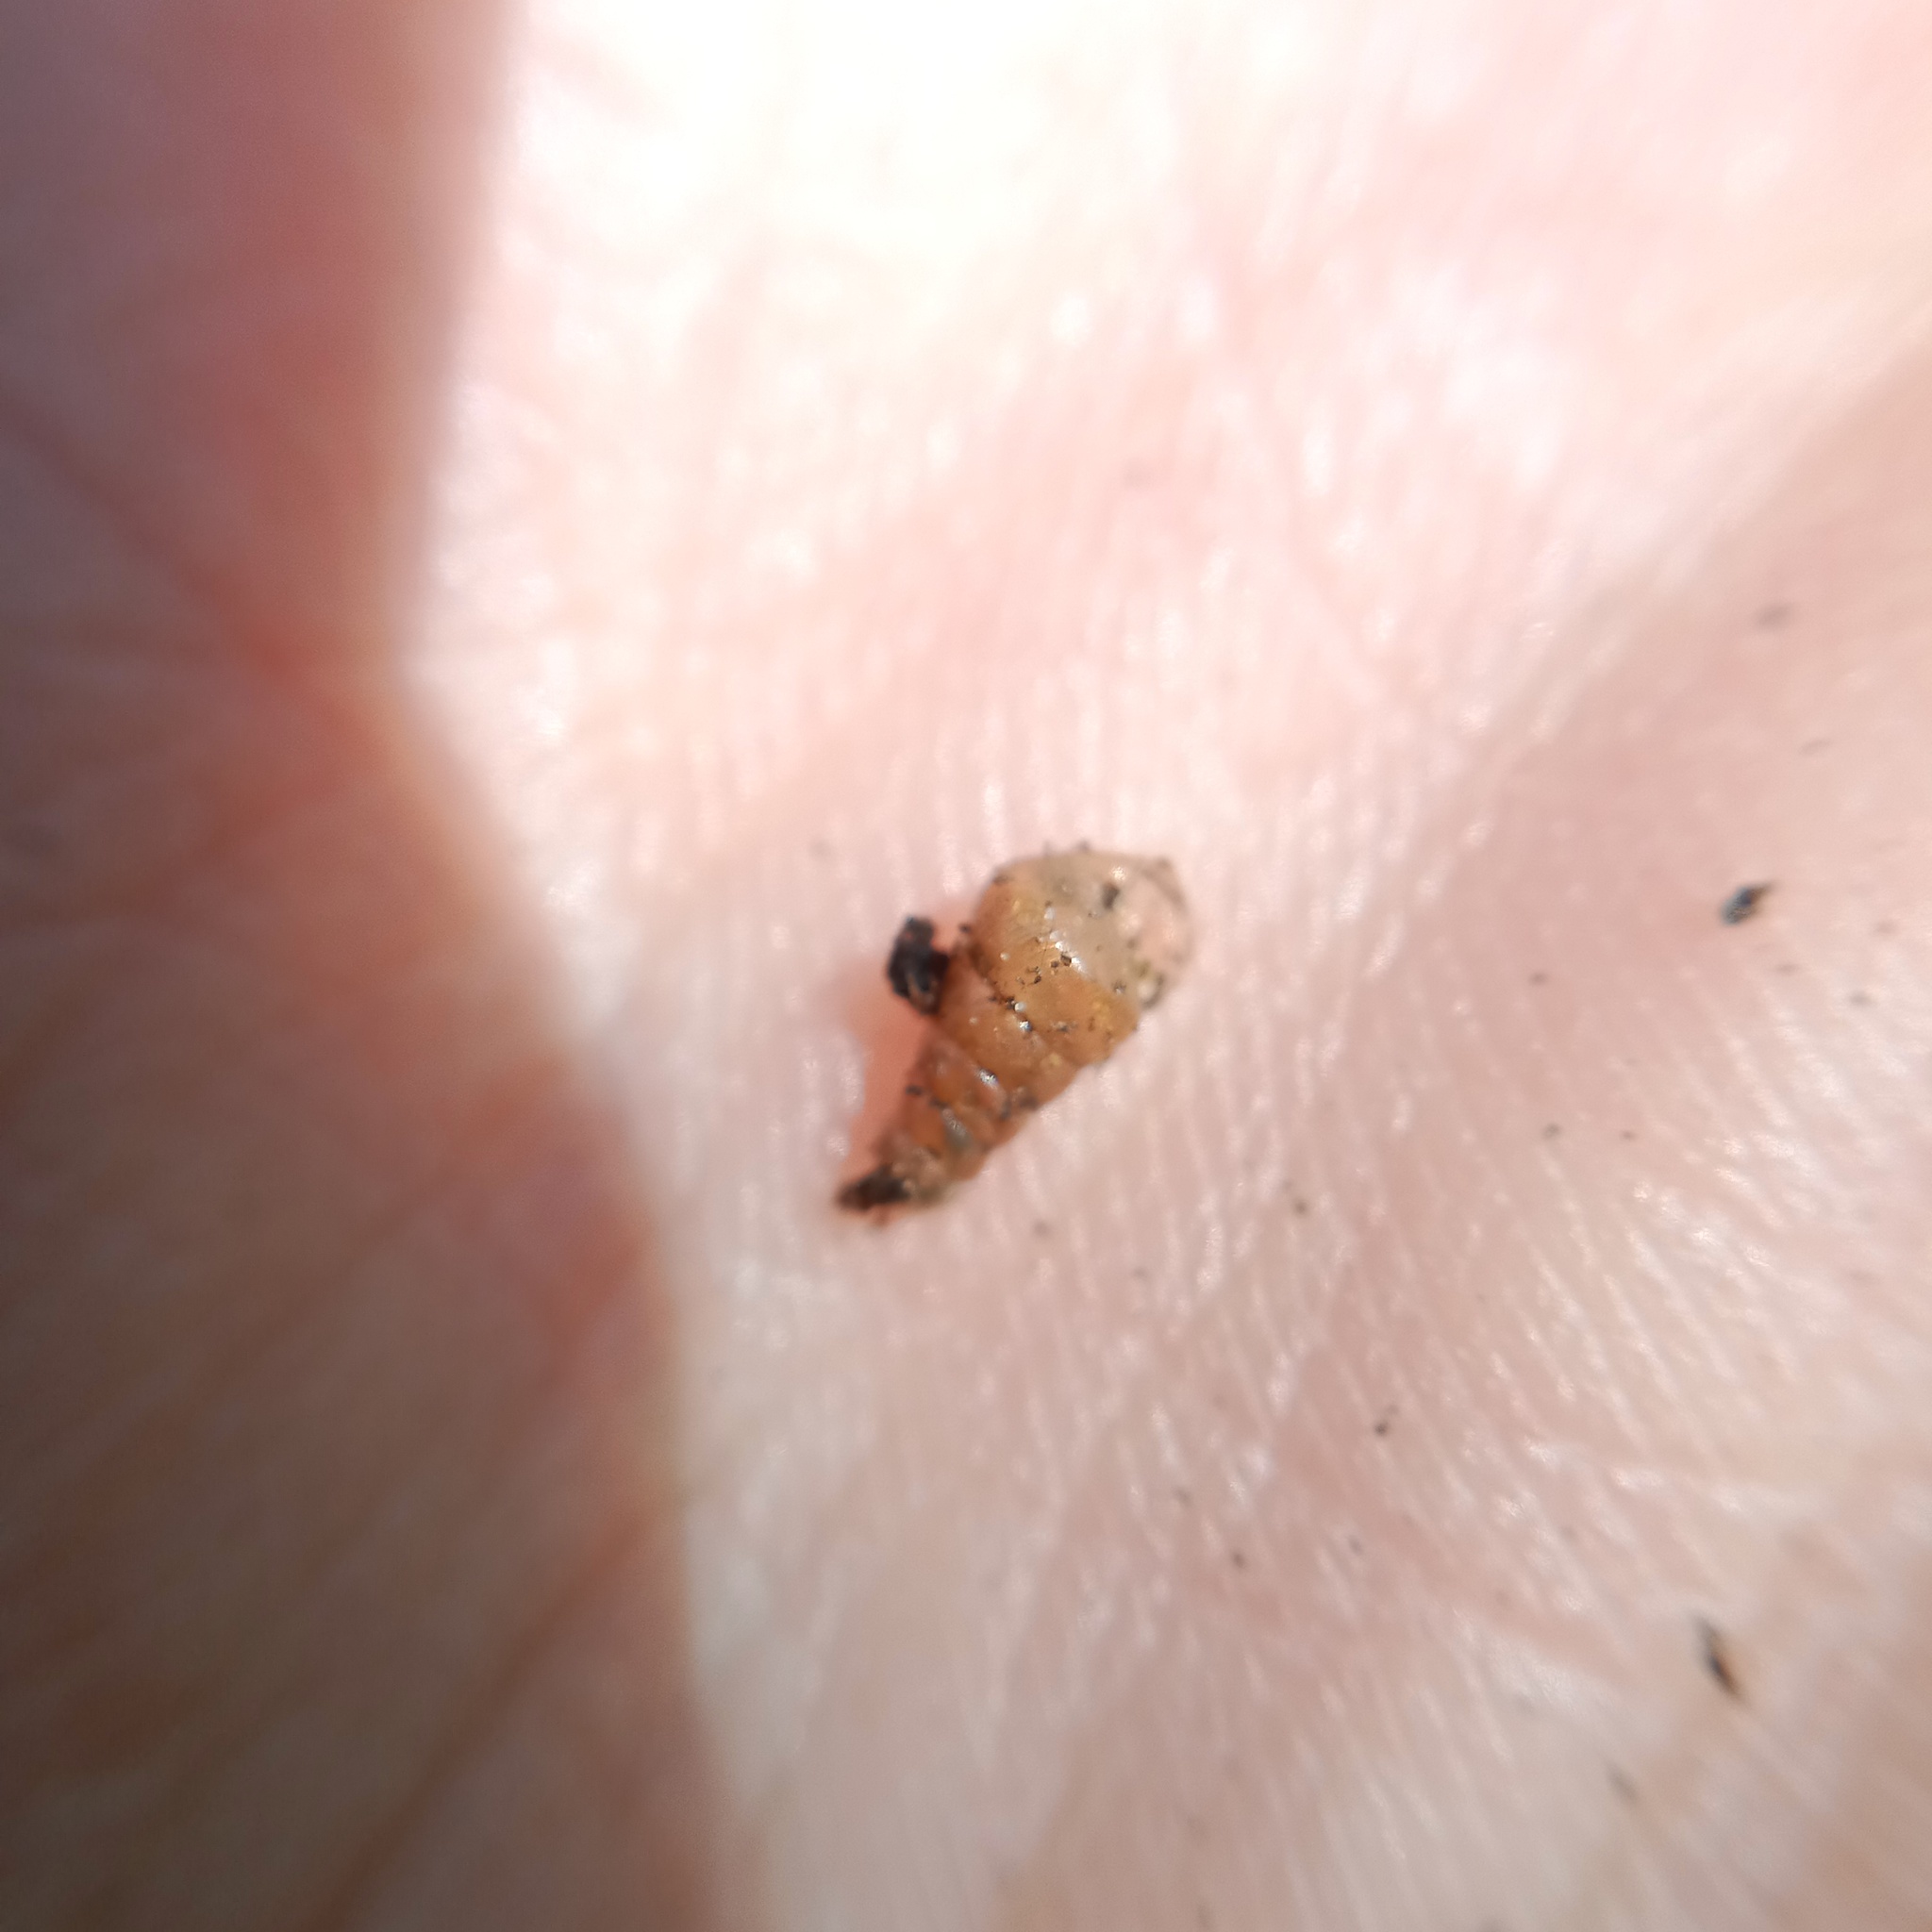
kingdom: Animalia
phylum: Mollusca
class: Gastropoda
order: Stylommatophora
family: Clausiliidae
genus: Cochlodina
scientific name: Cochlodina laminata
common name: Plaited door snail
